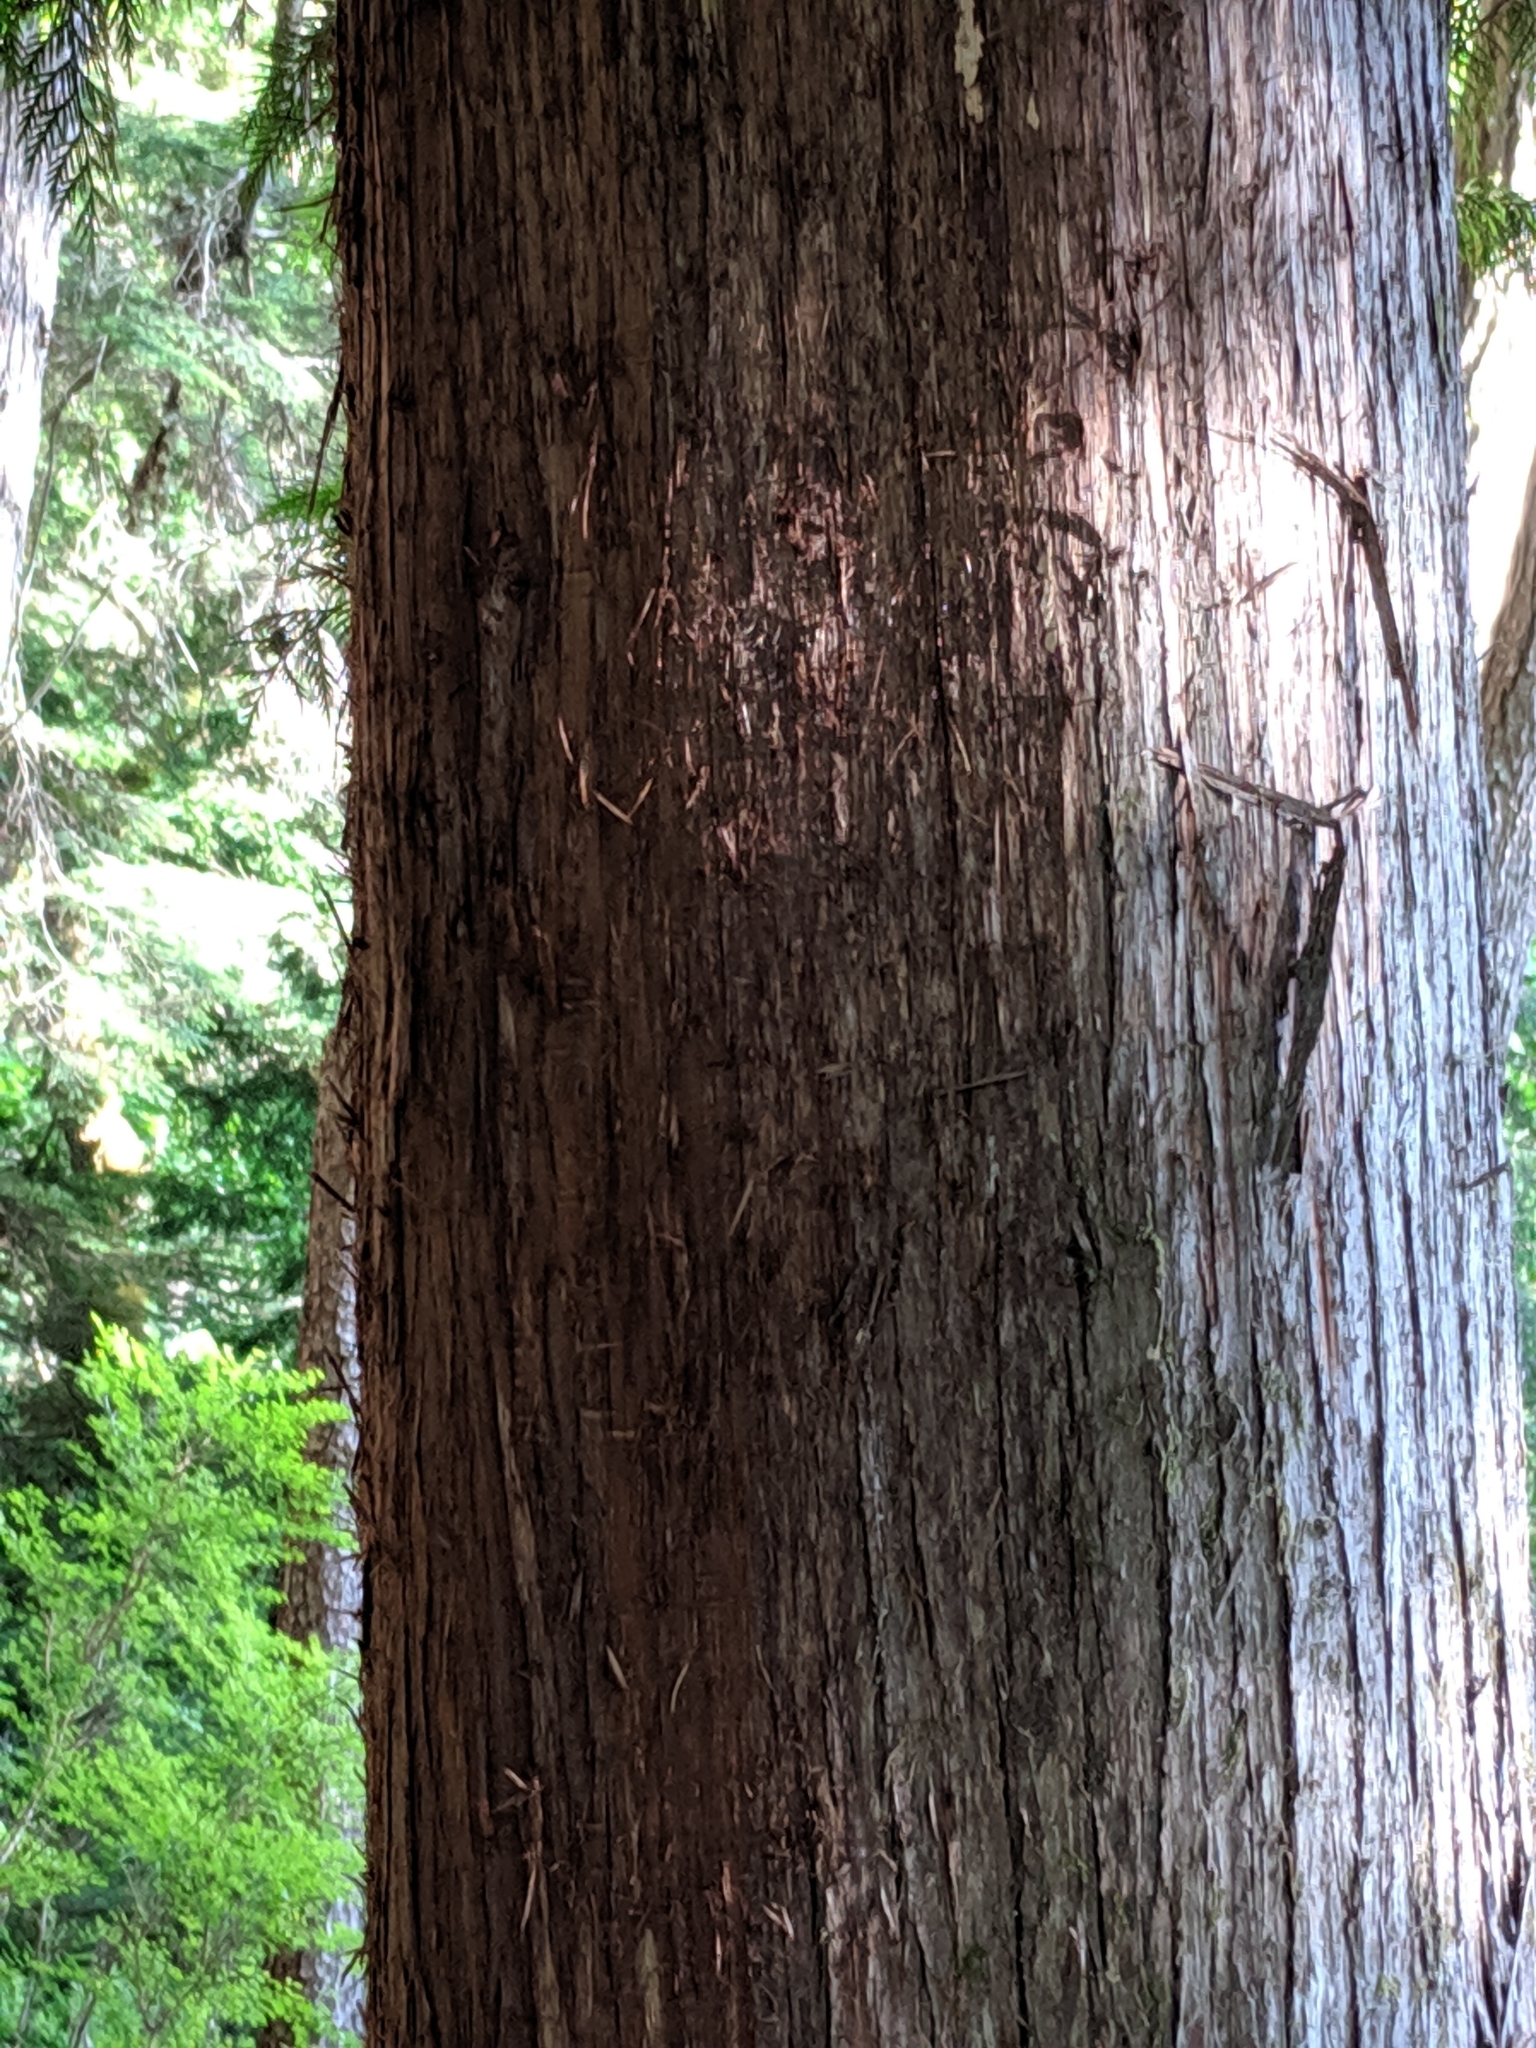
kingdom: Plantae
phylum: Tracheophyta
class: Pinopsida
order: Pinales
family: Cupressaceae
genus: Thuja
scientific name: Thuja plicata
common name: Western red-cedar
